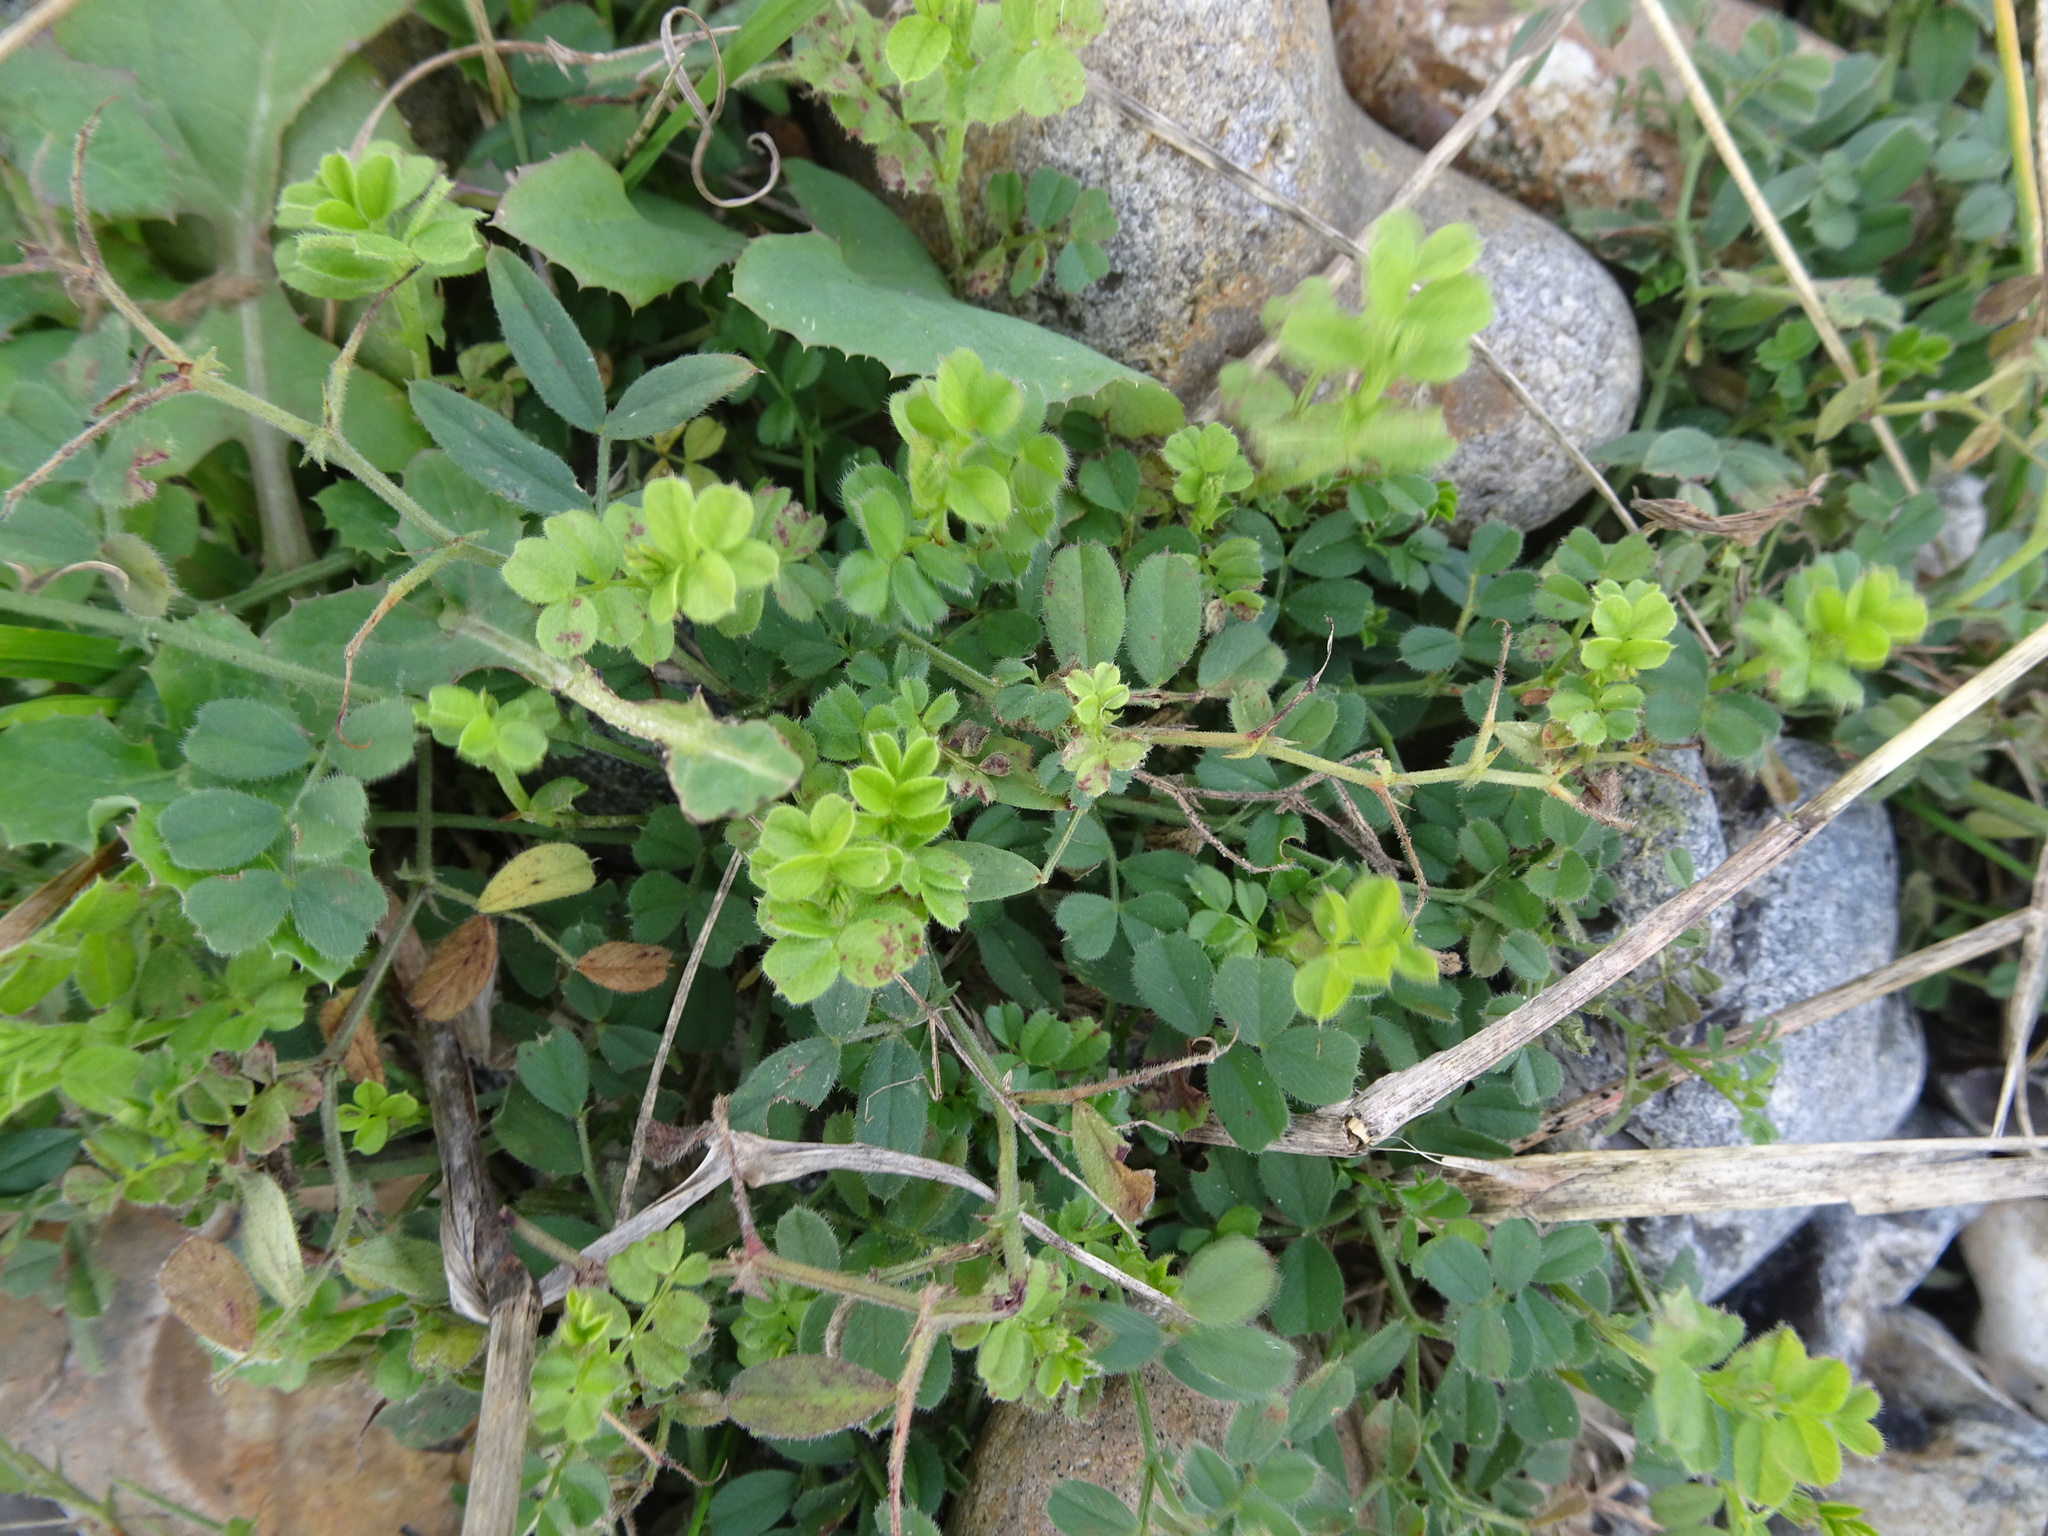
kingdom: Plantae
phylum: Tracheophyta
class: Magnoliopsida
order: Fabales
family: Fabaceae
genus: Vicia
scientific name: Vicia sativa
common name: Garden vetch
